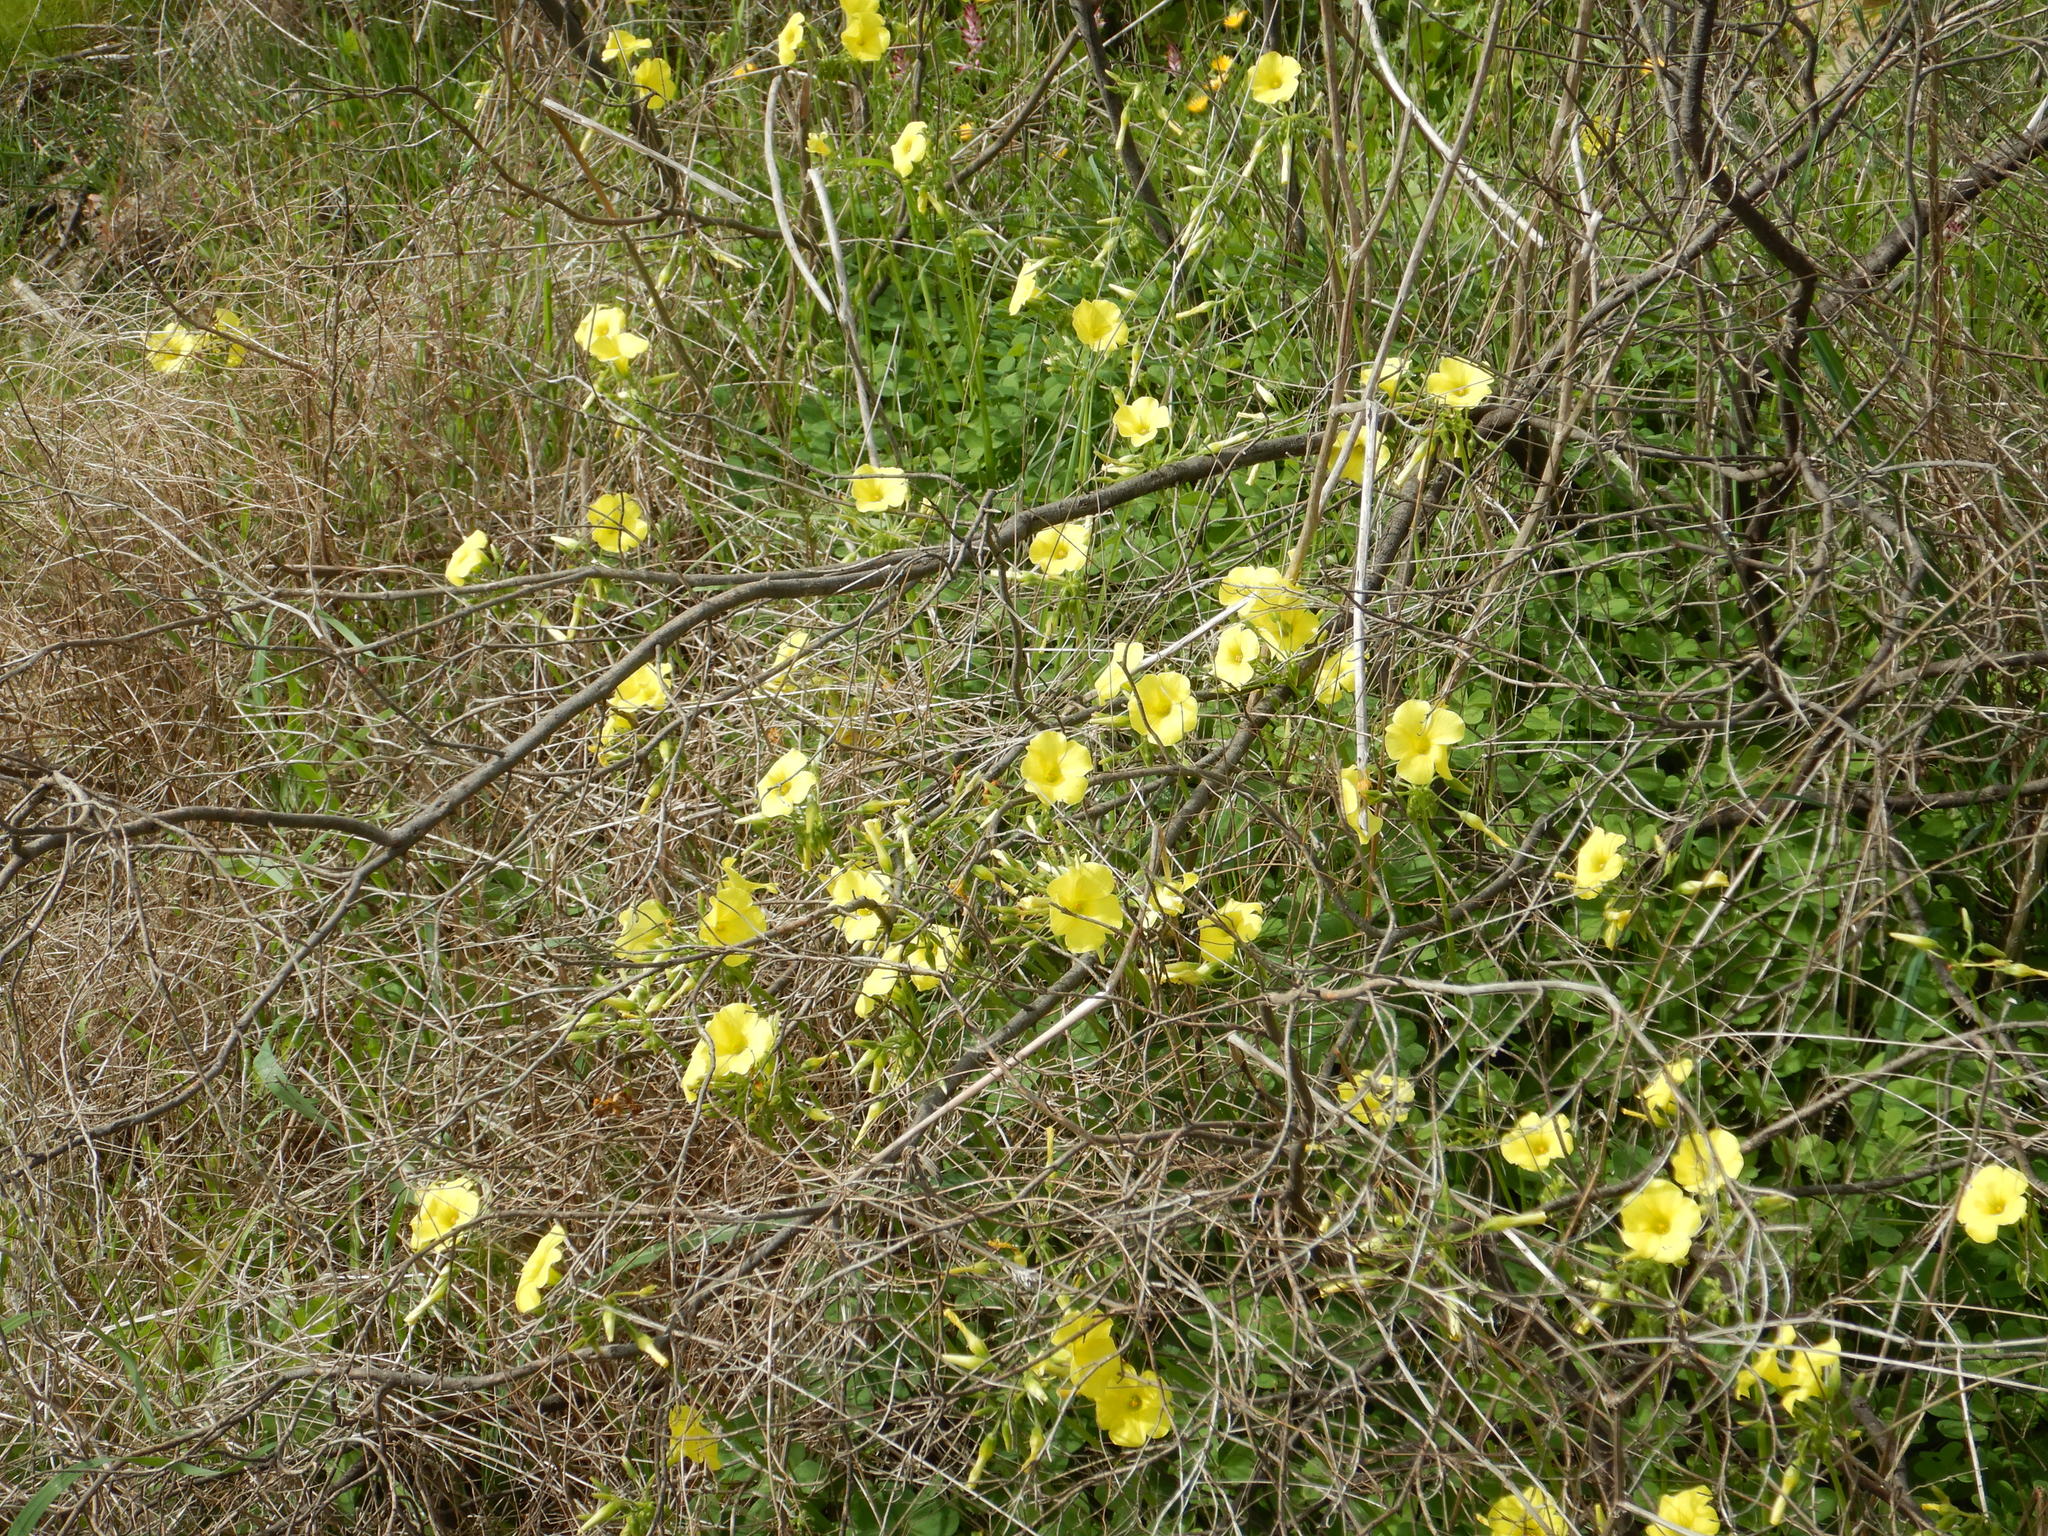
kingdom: Plantae
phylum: Tracheophyta
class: Magnoliopsida
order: Oxalidales
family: Oxalidaceae
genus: Oxalis
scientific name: Oxalis pes-caprae
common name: Bermuda-buttercup
